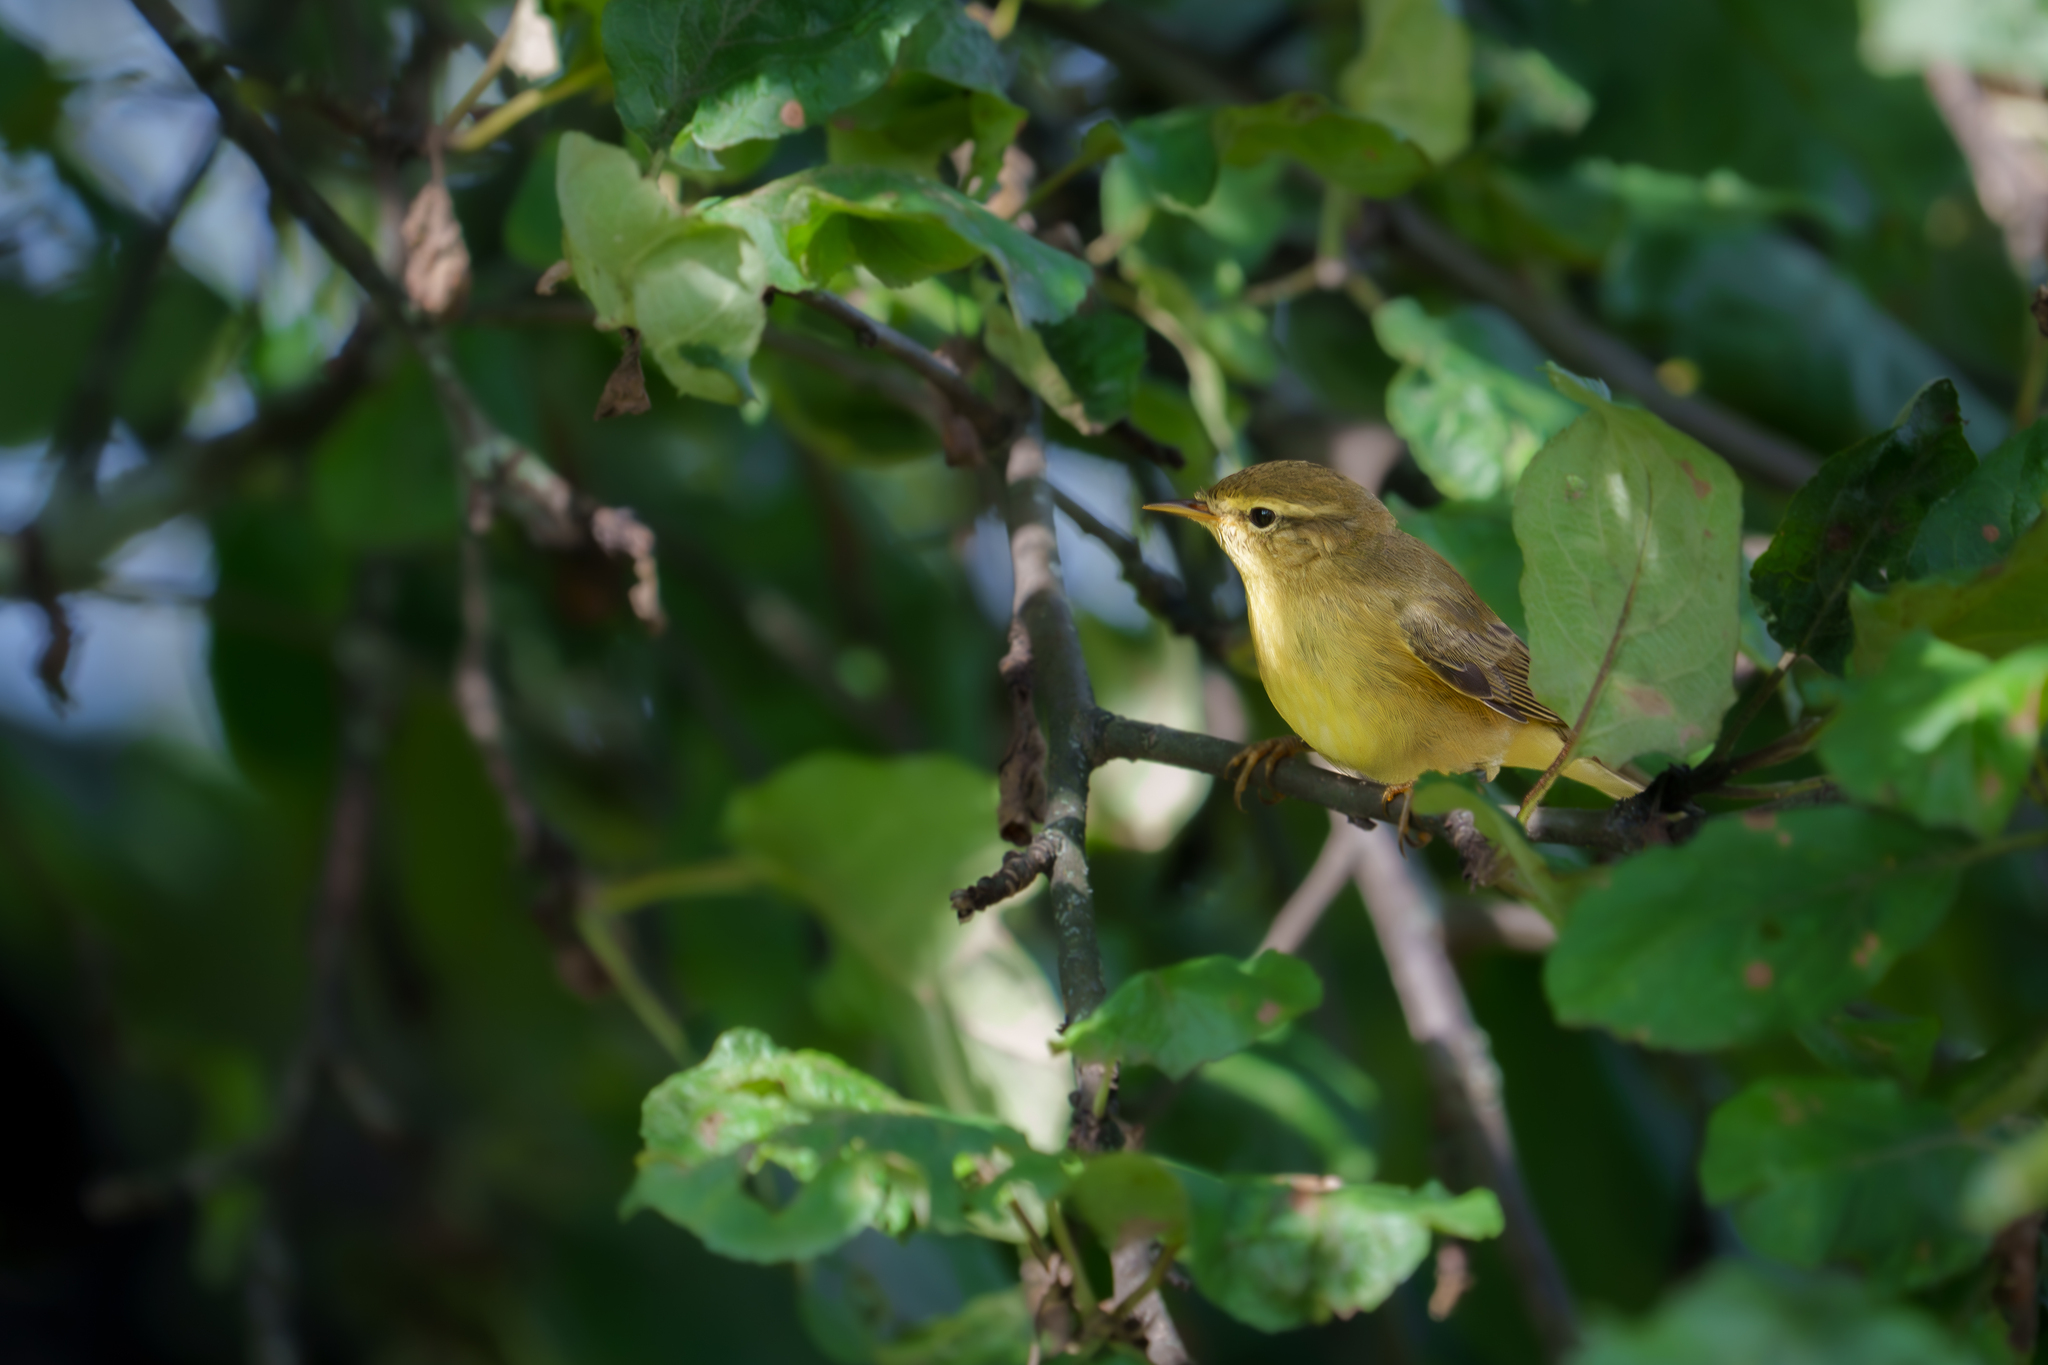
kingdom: Animalia
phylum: Chordata
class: Aves
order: Passeriformes
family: Phylloscopidae
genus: Phylloscopus
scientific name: Phylloscopus trochilus
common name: Willow warbler
